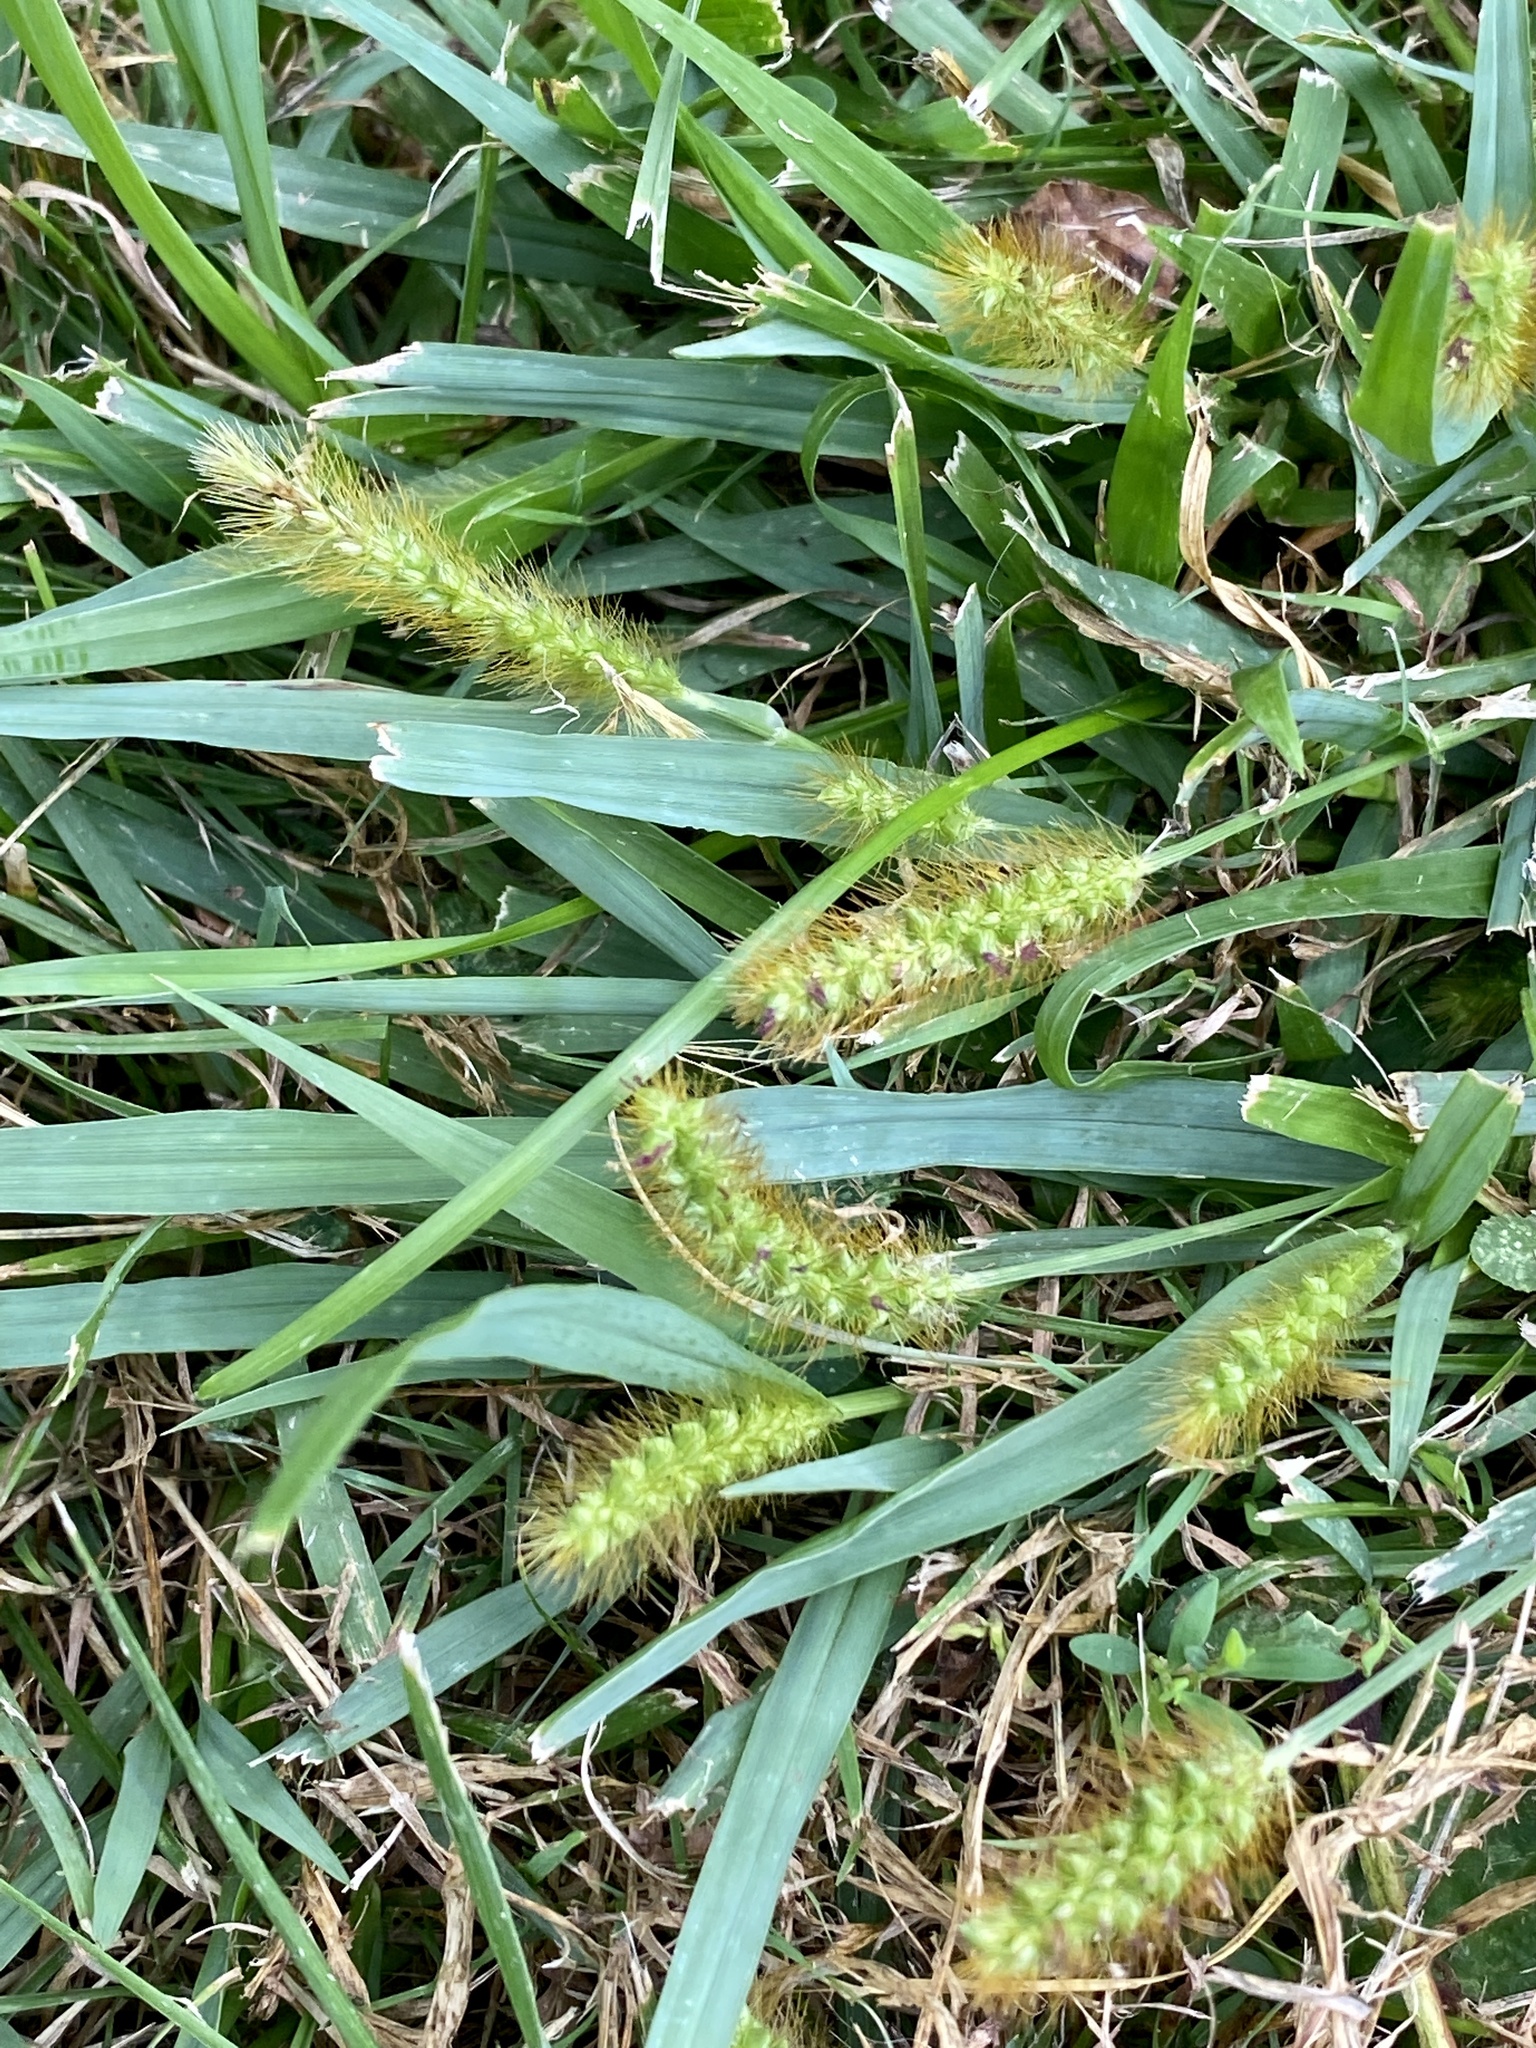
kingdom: Plantae
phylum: Tracheophyta
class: Liliopsida
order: Poales
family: Poaceae
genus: Setaria
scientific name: Setaria pumila
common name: Yellow bristle-grass
